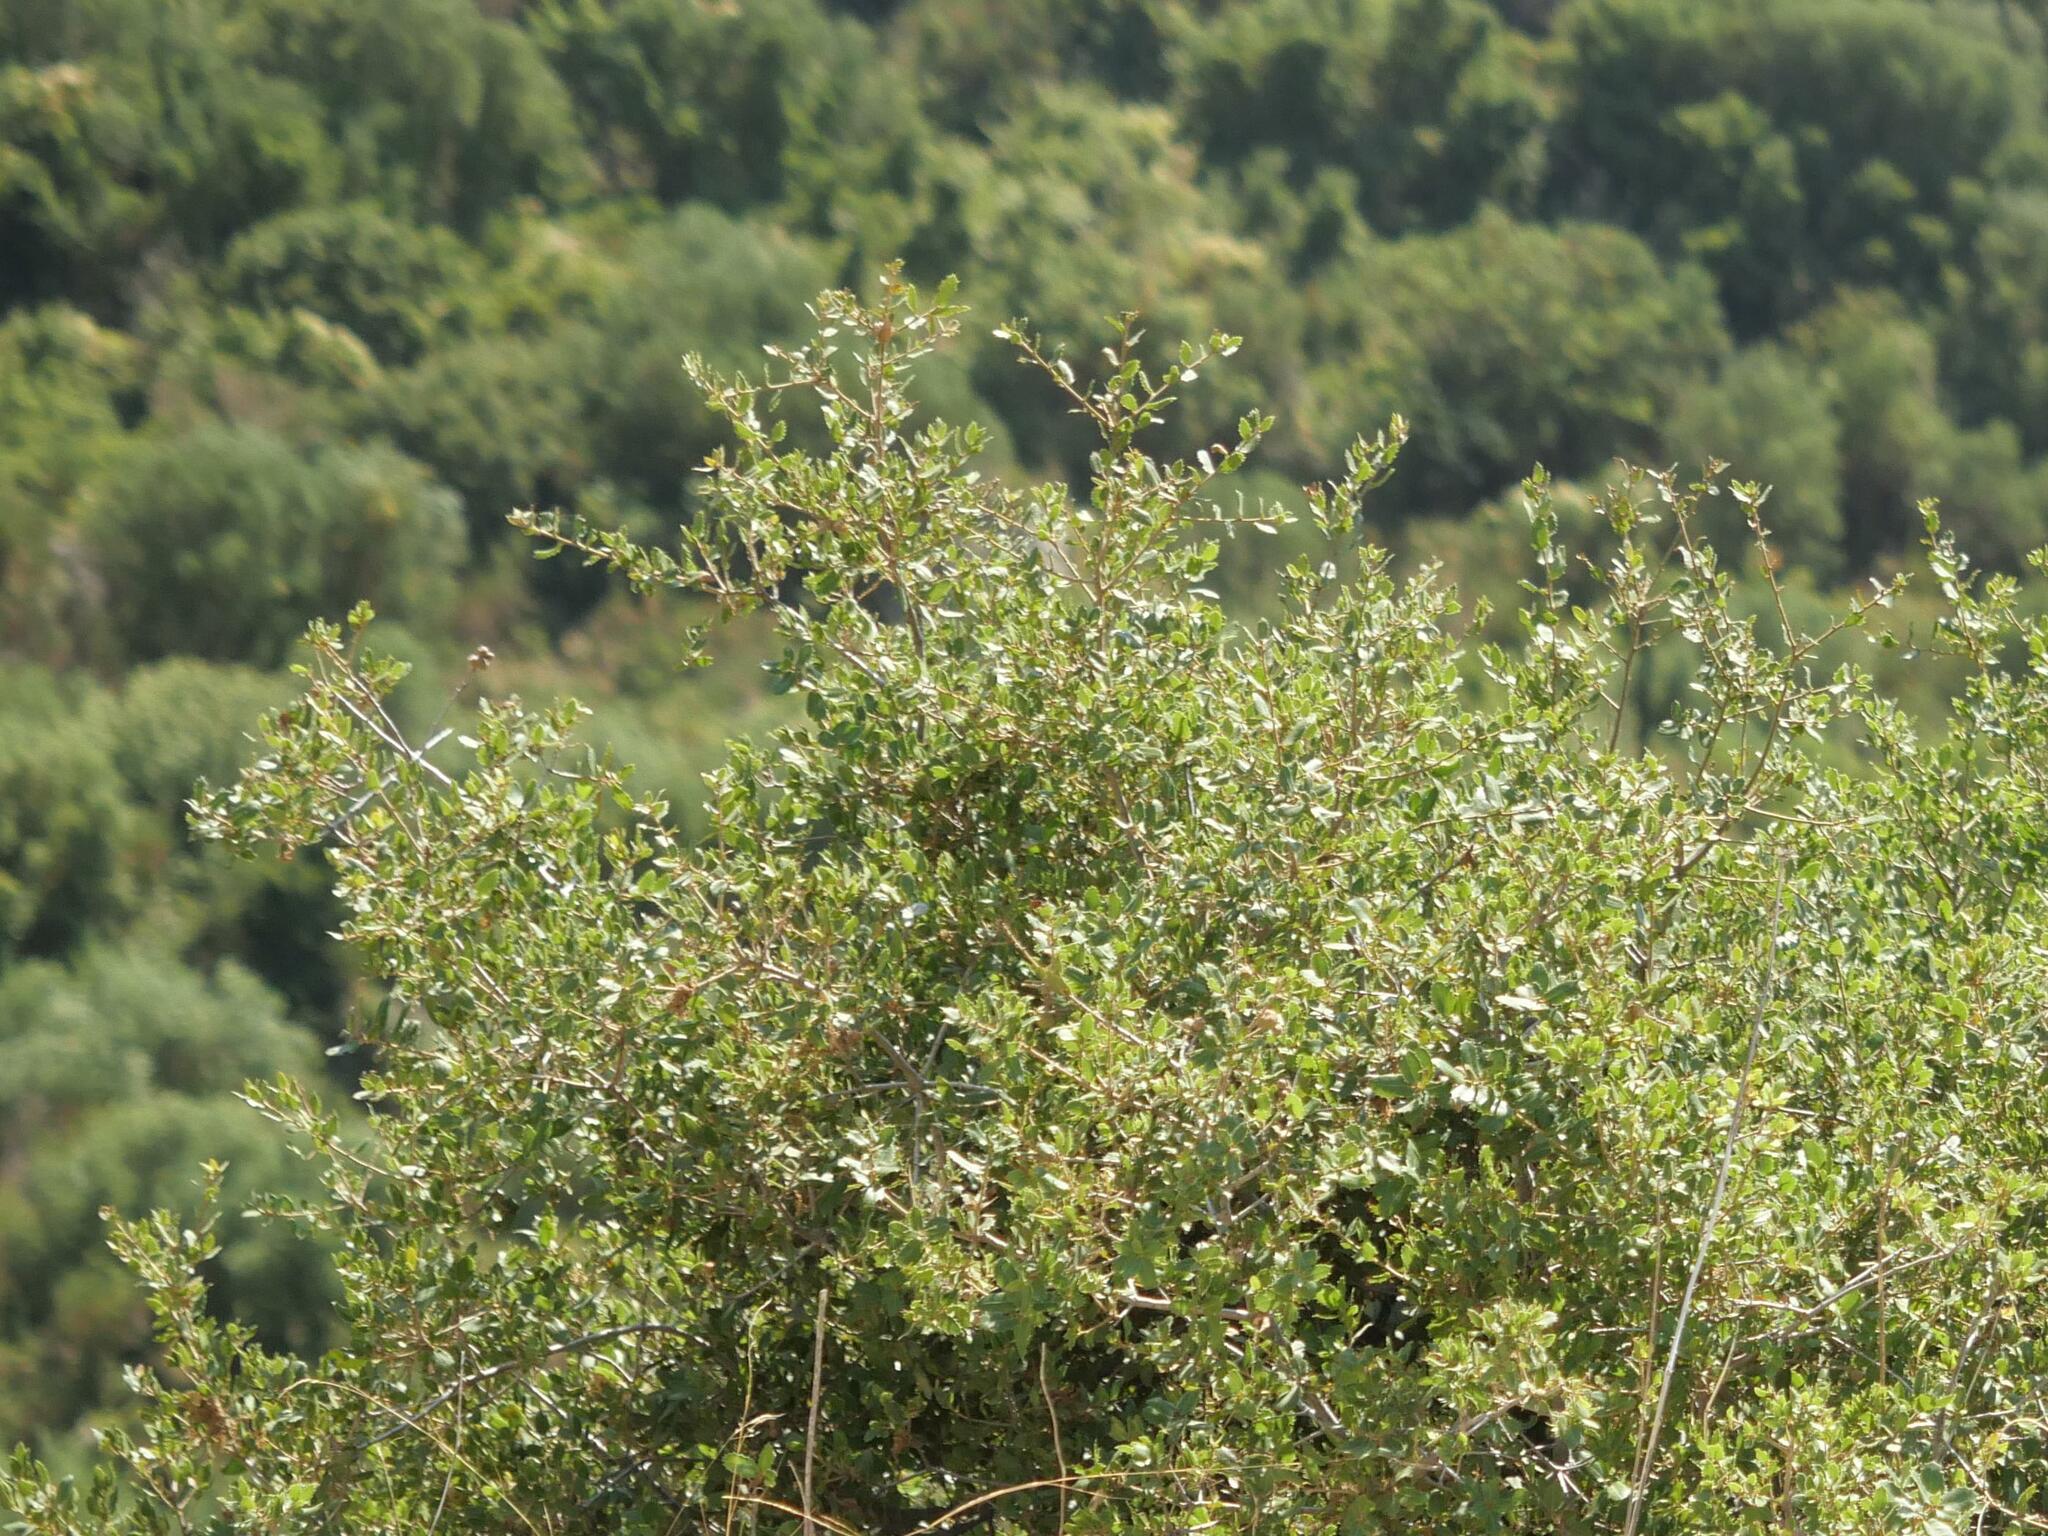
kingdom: Plantae
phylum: Tracheophyta
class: Magnoliopsida
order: Sapindales
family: Anacardiaceae
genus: Pistacia
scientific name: Pistacia lentiscus
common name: Lentisk
